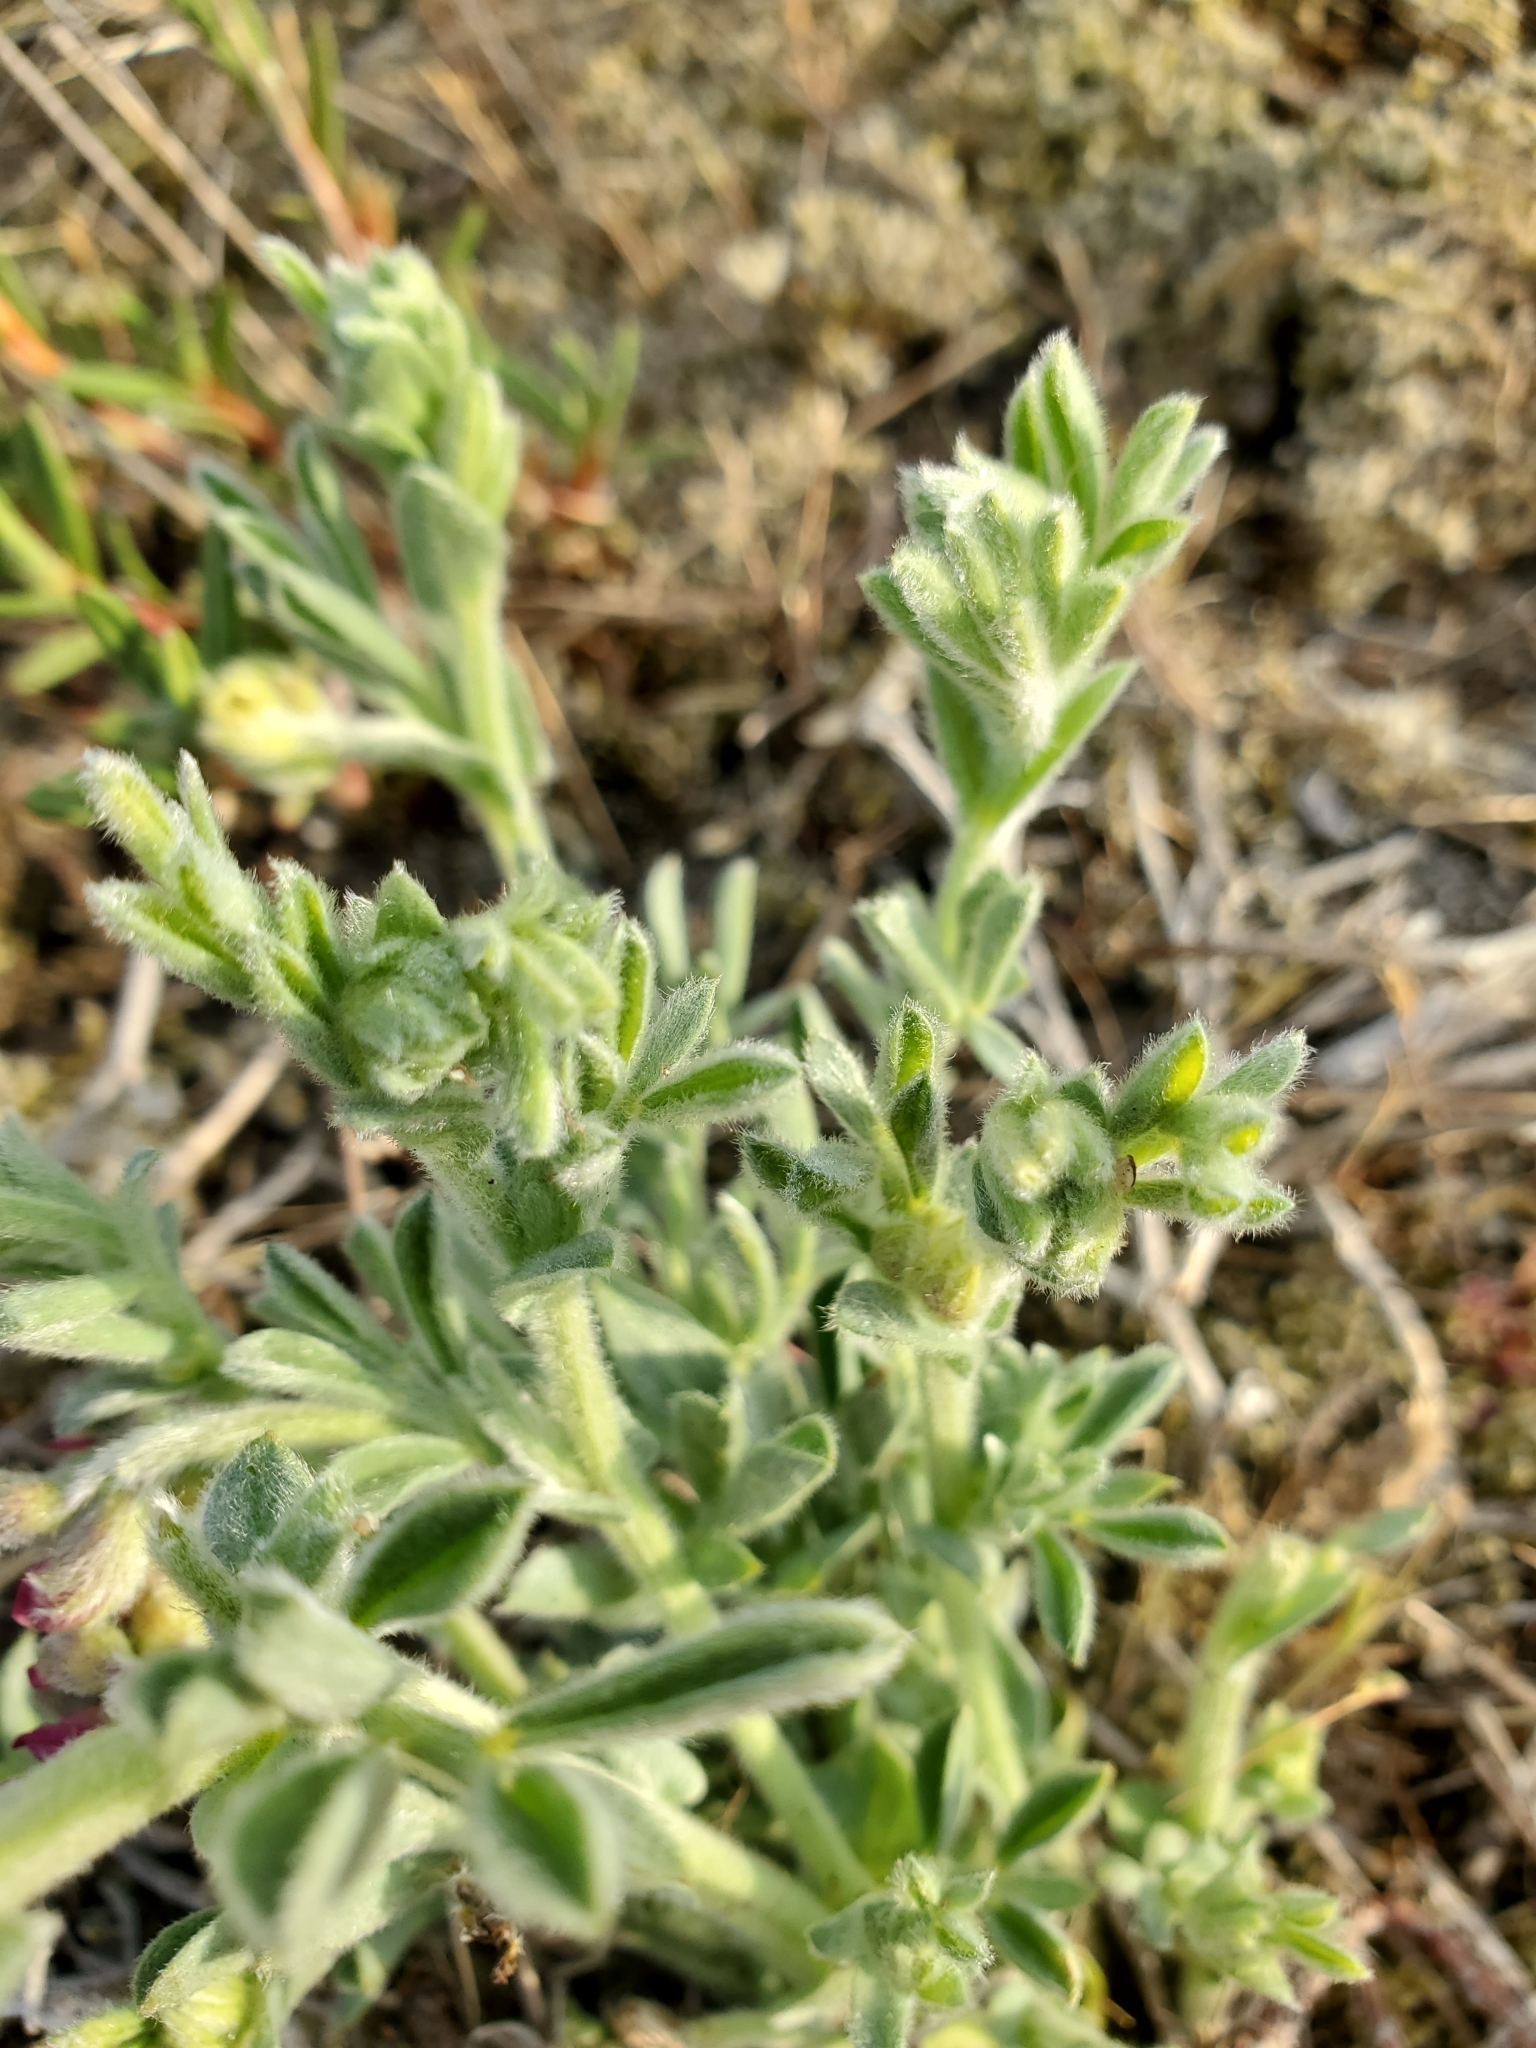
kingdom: Plantae
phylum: Tracheophyta
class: Magnoliopsida
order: Fabales
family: Fabaceae
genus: Lathyrus
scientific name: Lathyrus littoralis
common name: Dune sweet pea
